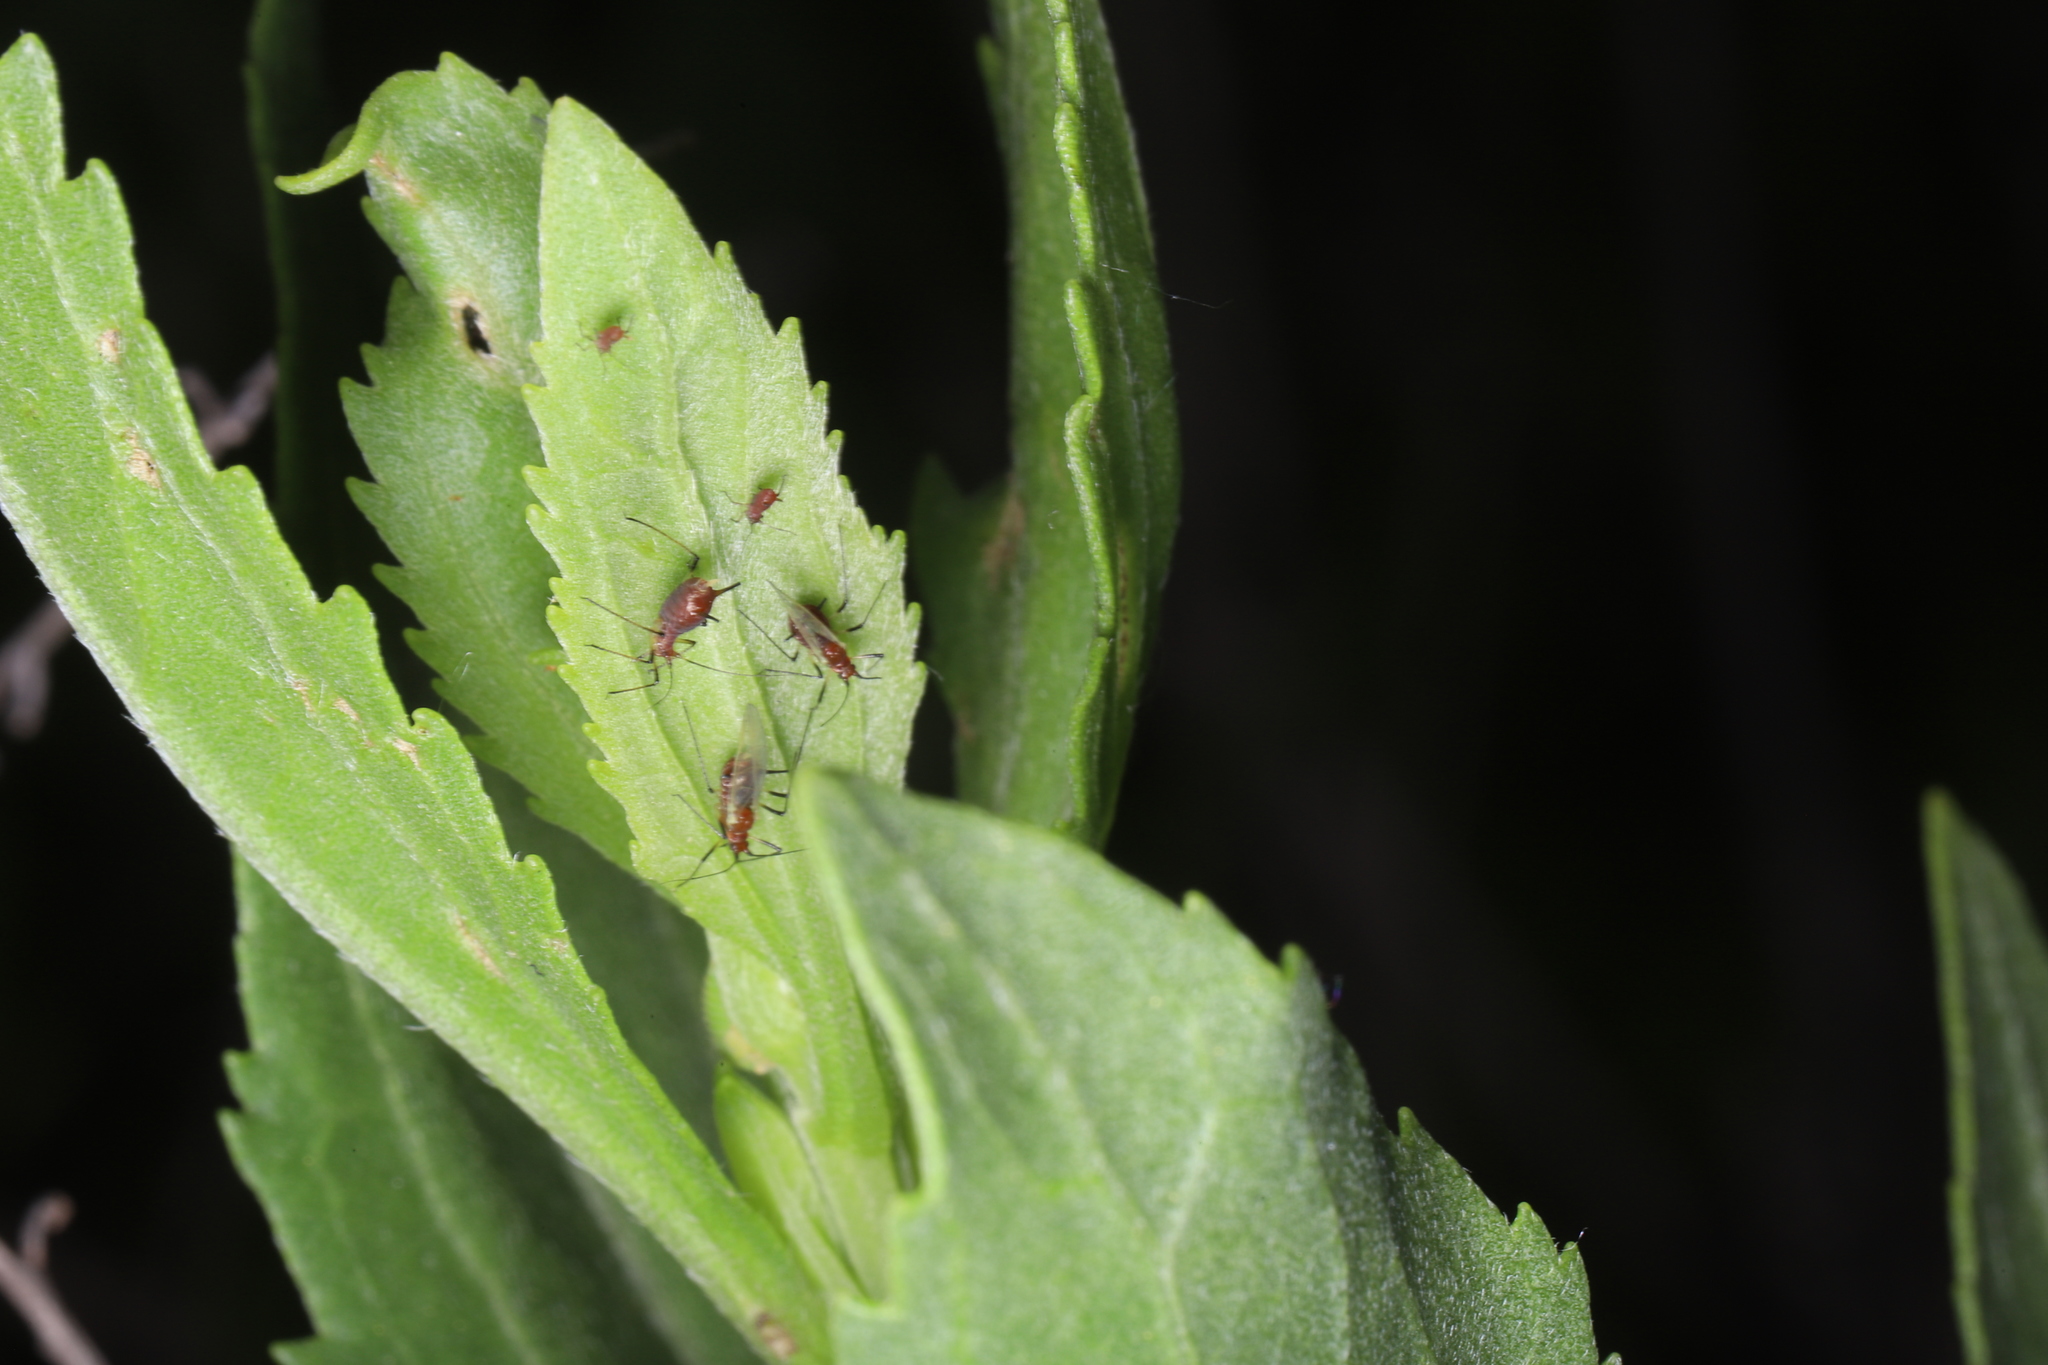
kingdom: Plantae
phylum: Tracheophyta
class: Magnoliopsida
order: Asterales
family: Asteraceae
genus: Iva
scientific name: Iva frutescens
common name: Big-leaved marsh-elder
